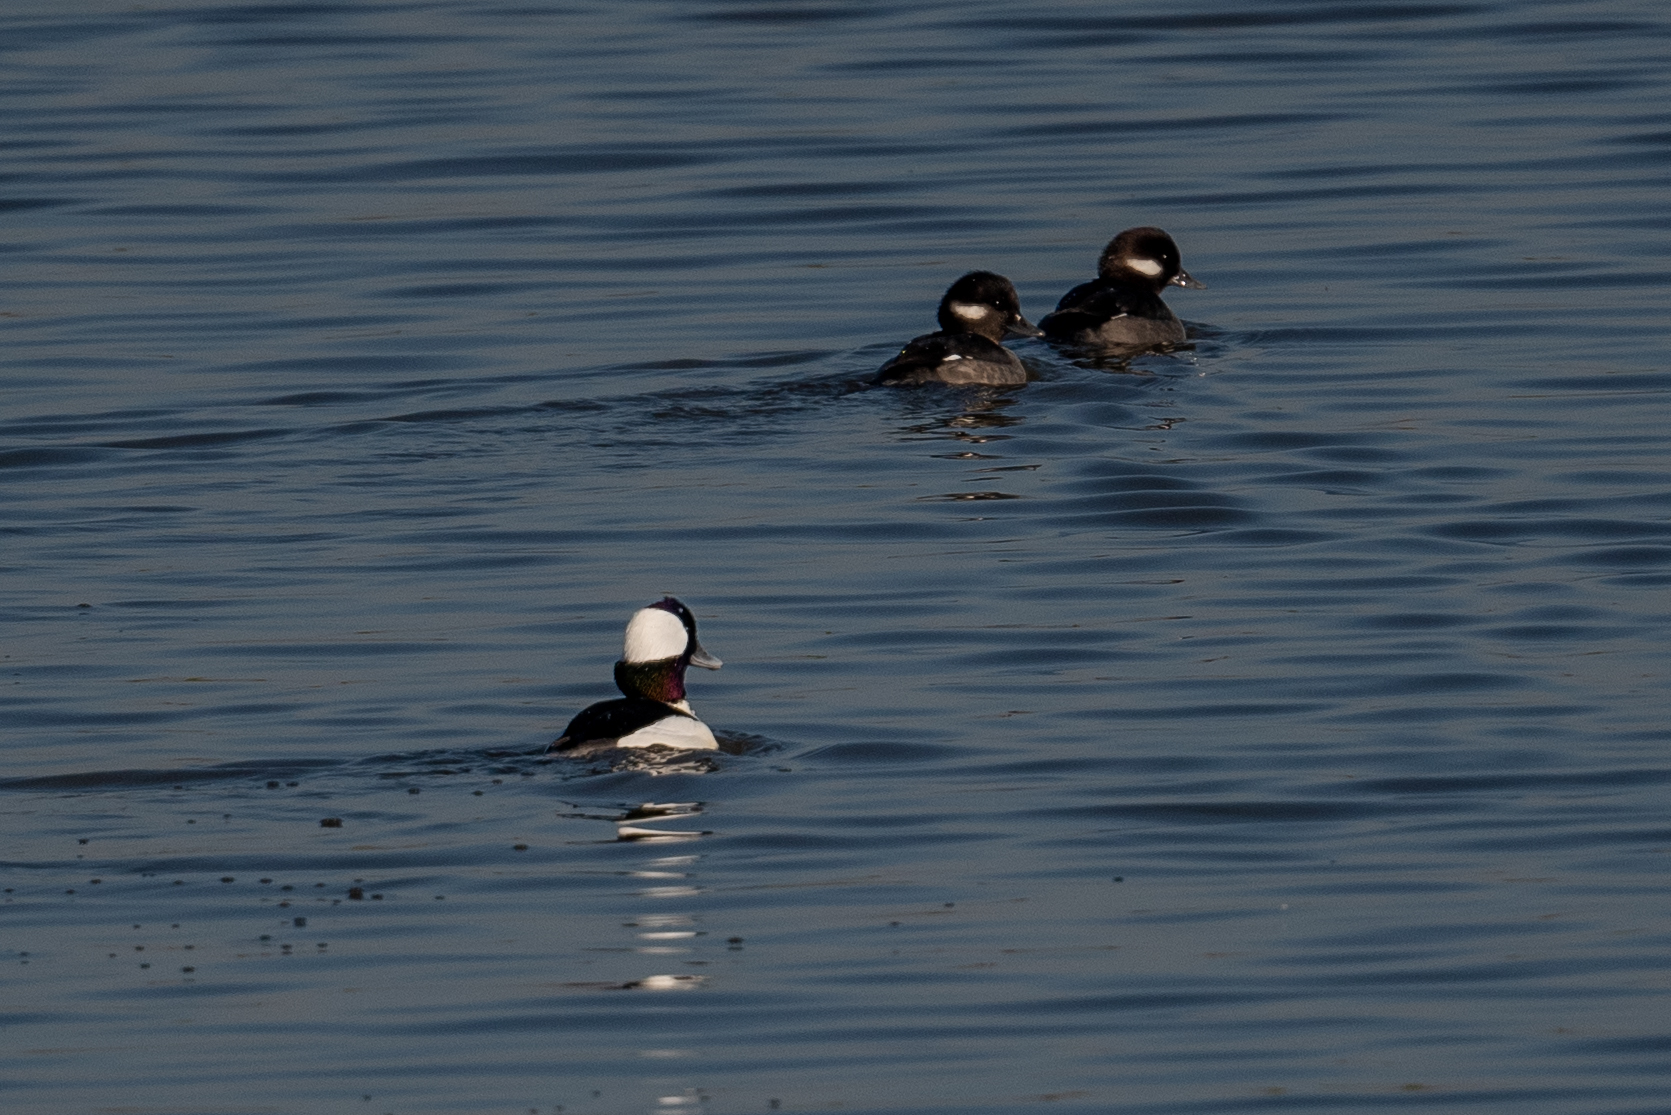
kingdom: Animalia
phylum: Chordata
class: Aves
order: Anseriformes
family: Anatidae
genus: Bucephala
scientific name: Bucephala albeola
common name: Bufflehead
